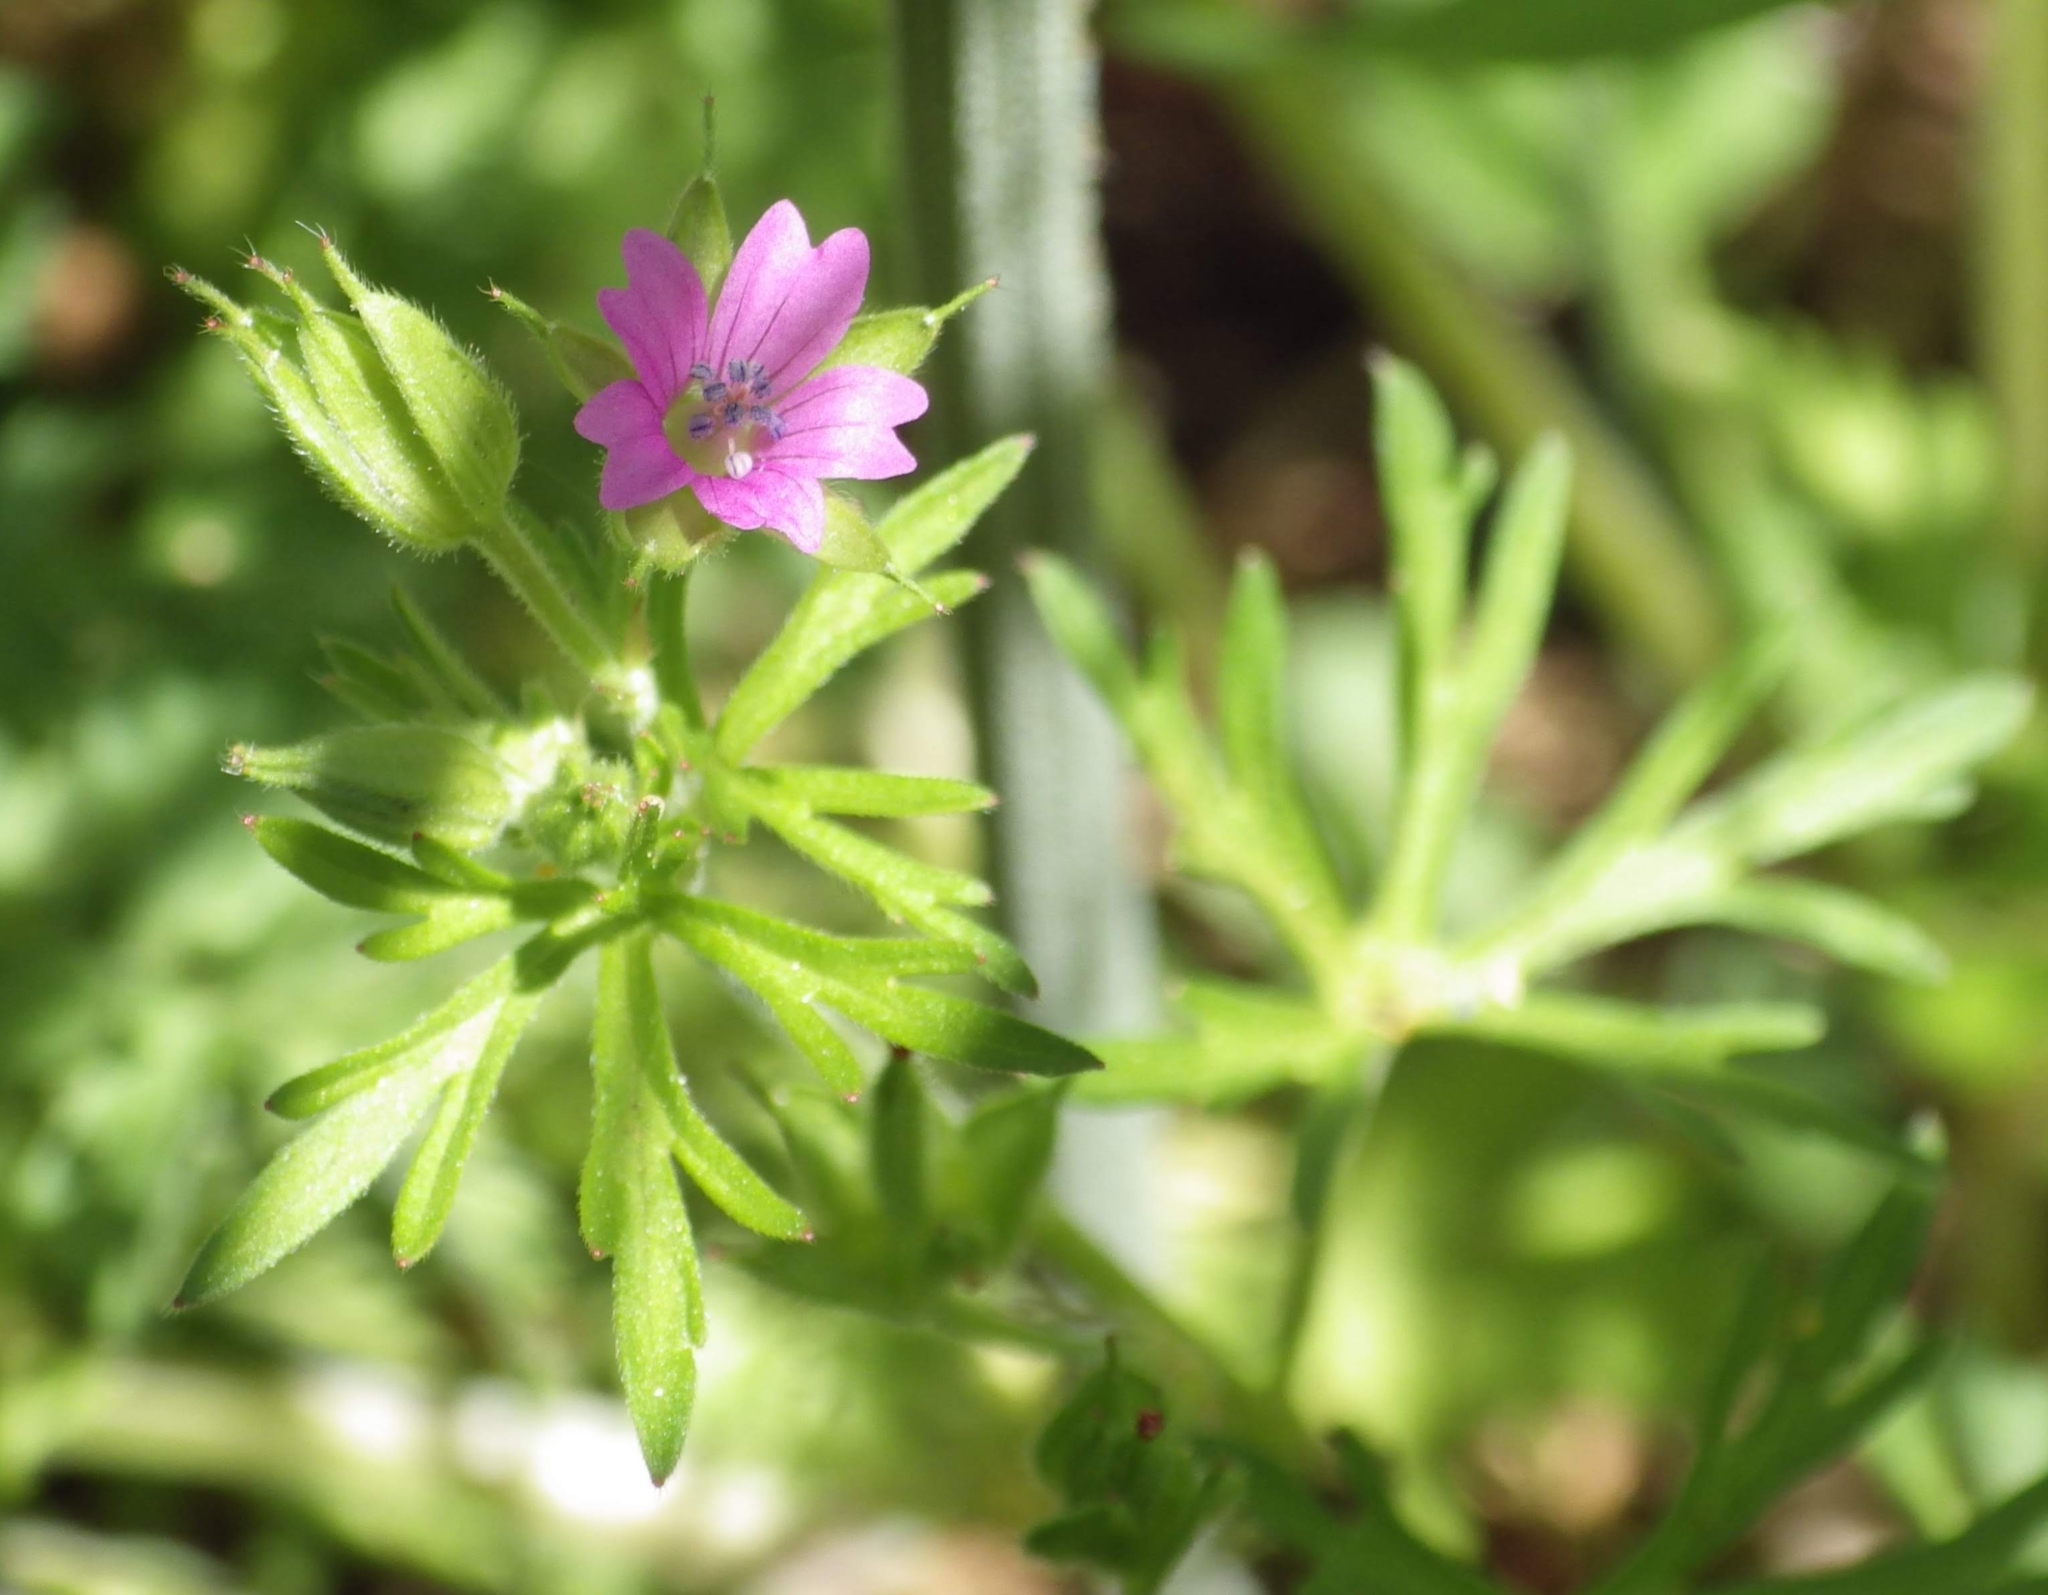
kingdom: Plantae
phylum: Tracheophyta
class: Magnoliopsida
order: Geraniales
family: Geraniaceae
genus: Geranium
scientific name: Geranium dissectum
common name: Cut-leaved crane's-bill
